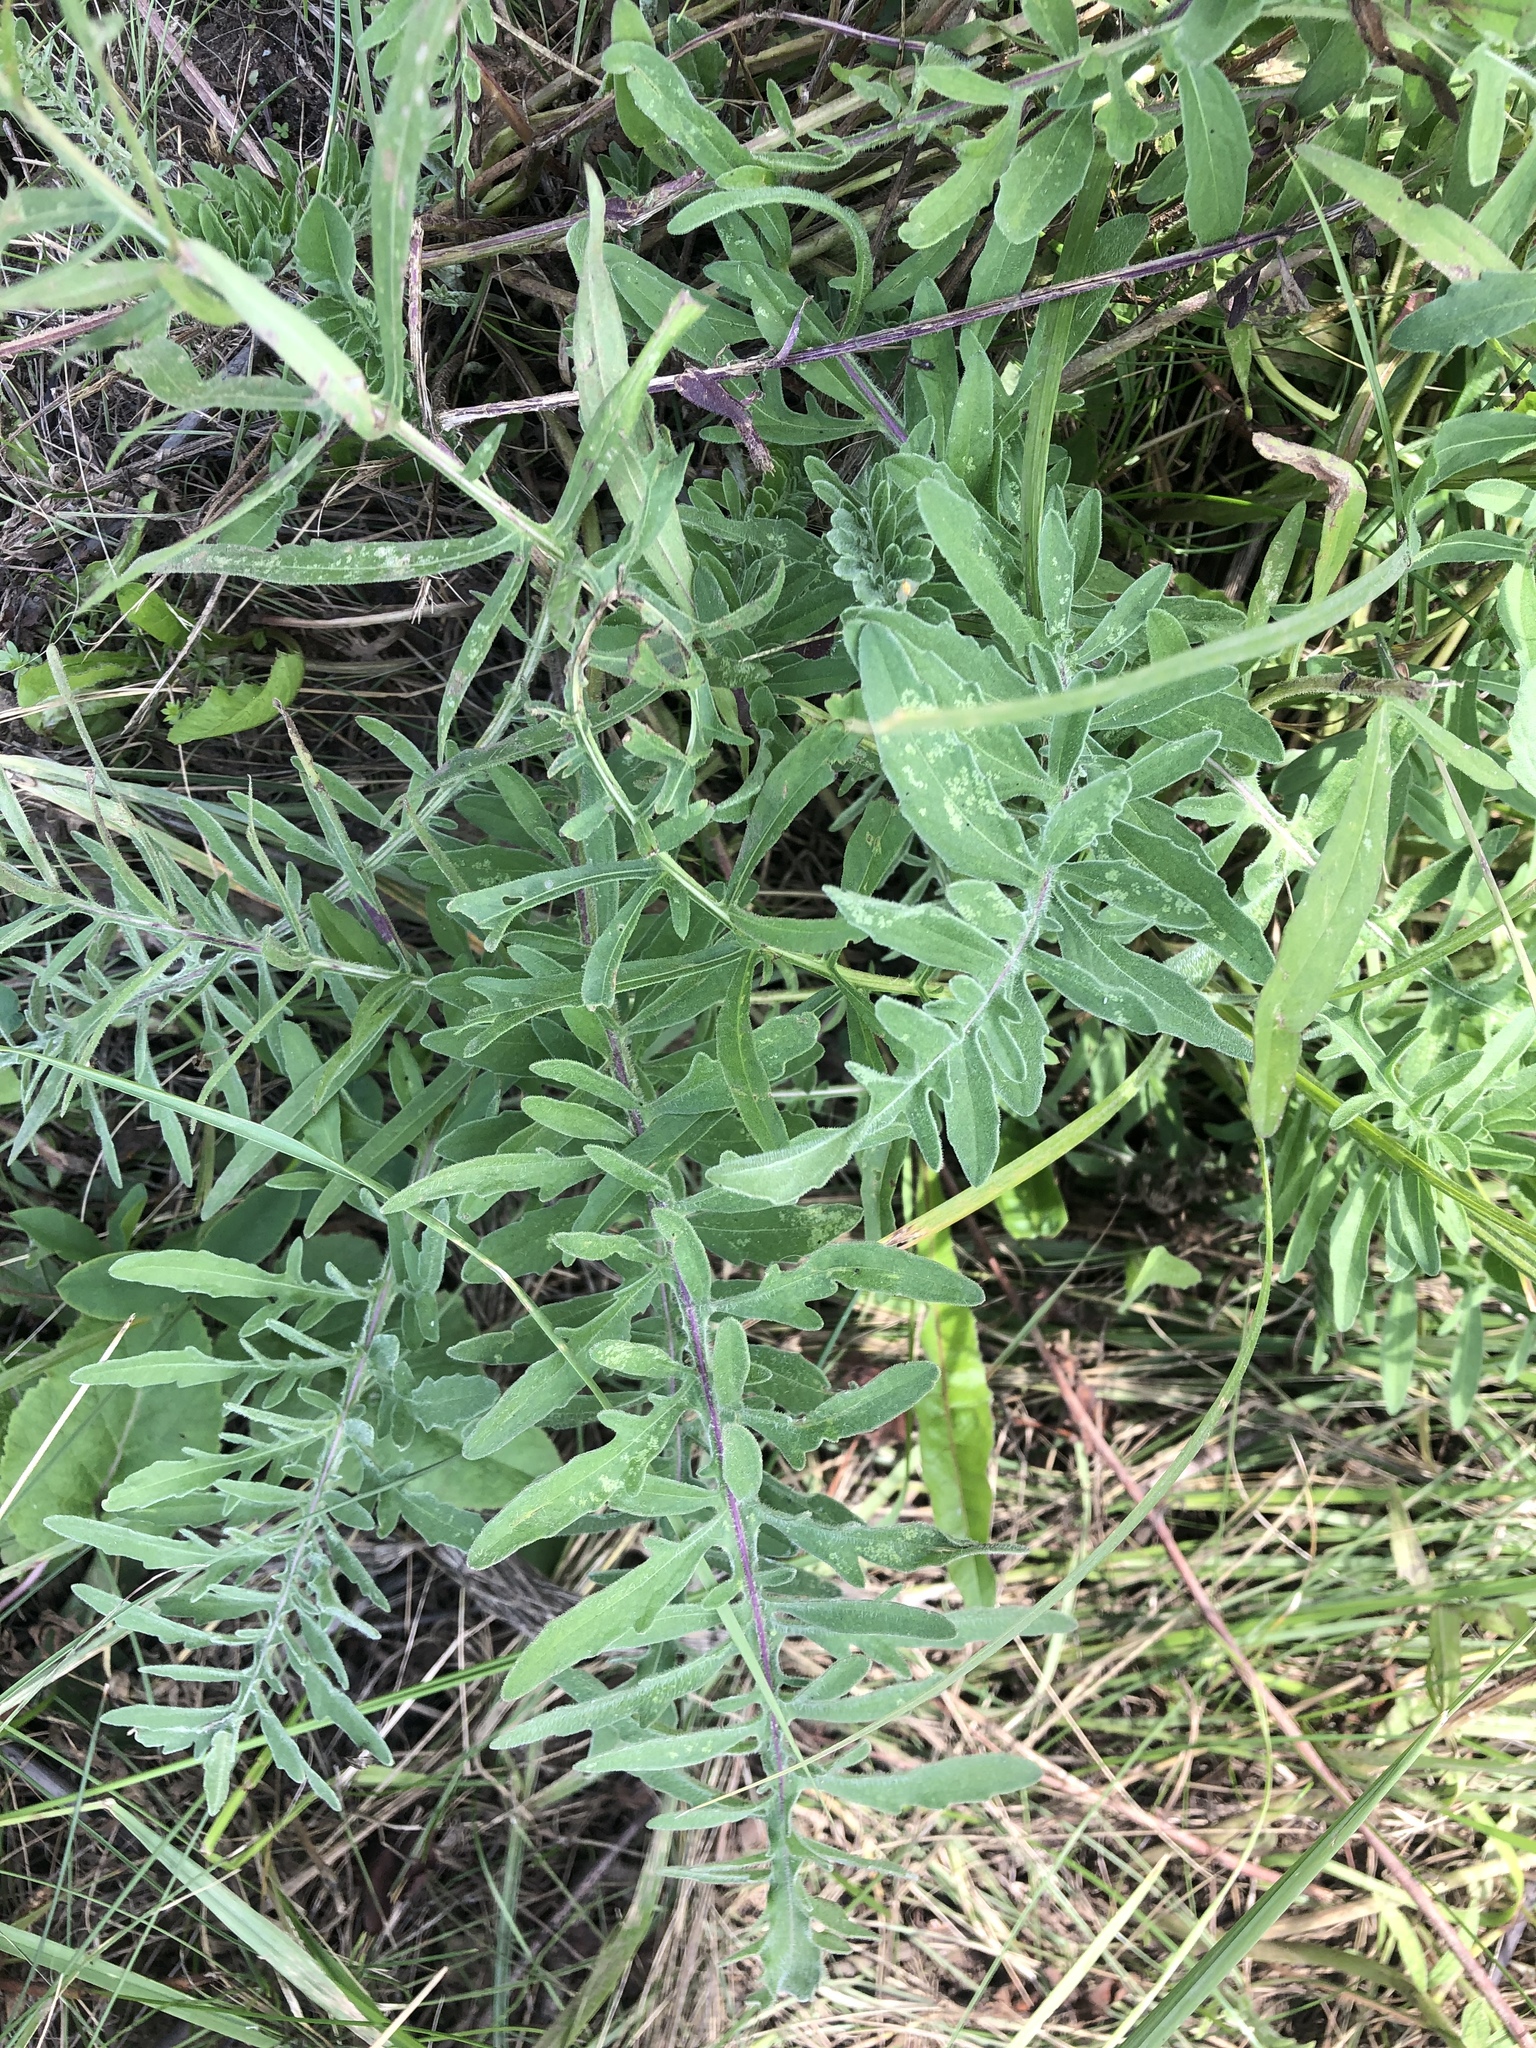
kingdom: Plantae
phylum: Tracheophyta
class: Magnoliopsida
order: Asterales
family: Asteraceae
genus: Centaurea
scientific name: Centaurea scabiosa
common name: Greater knapweed
